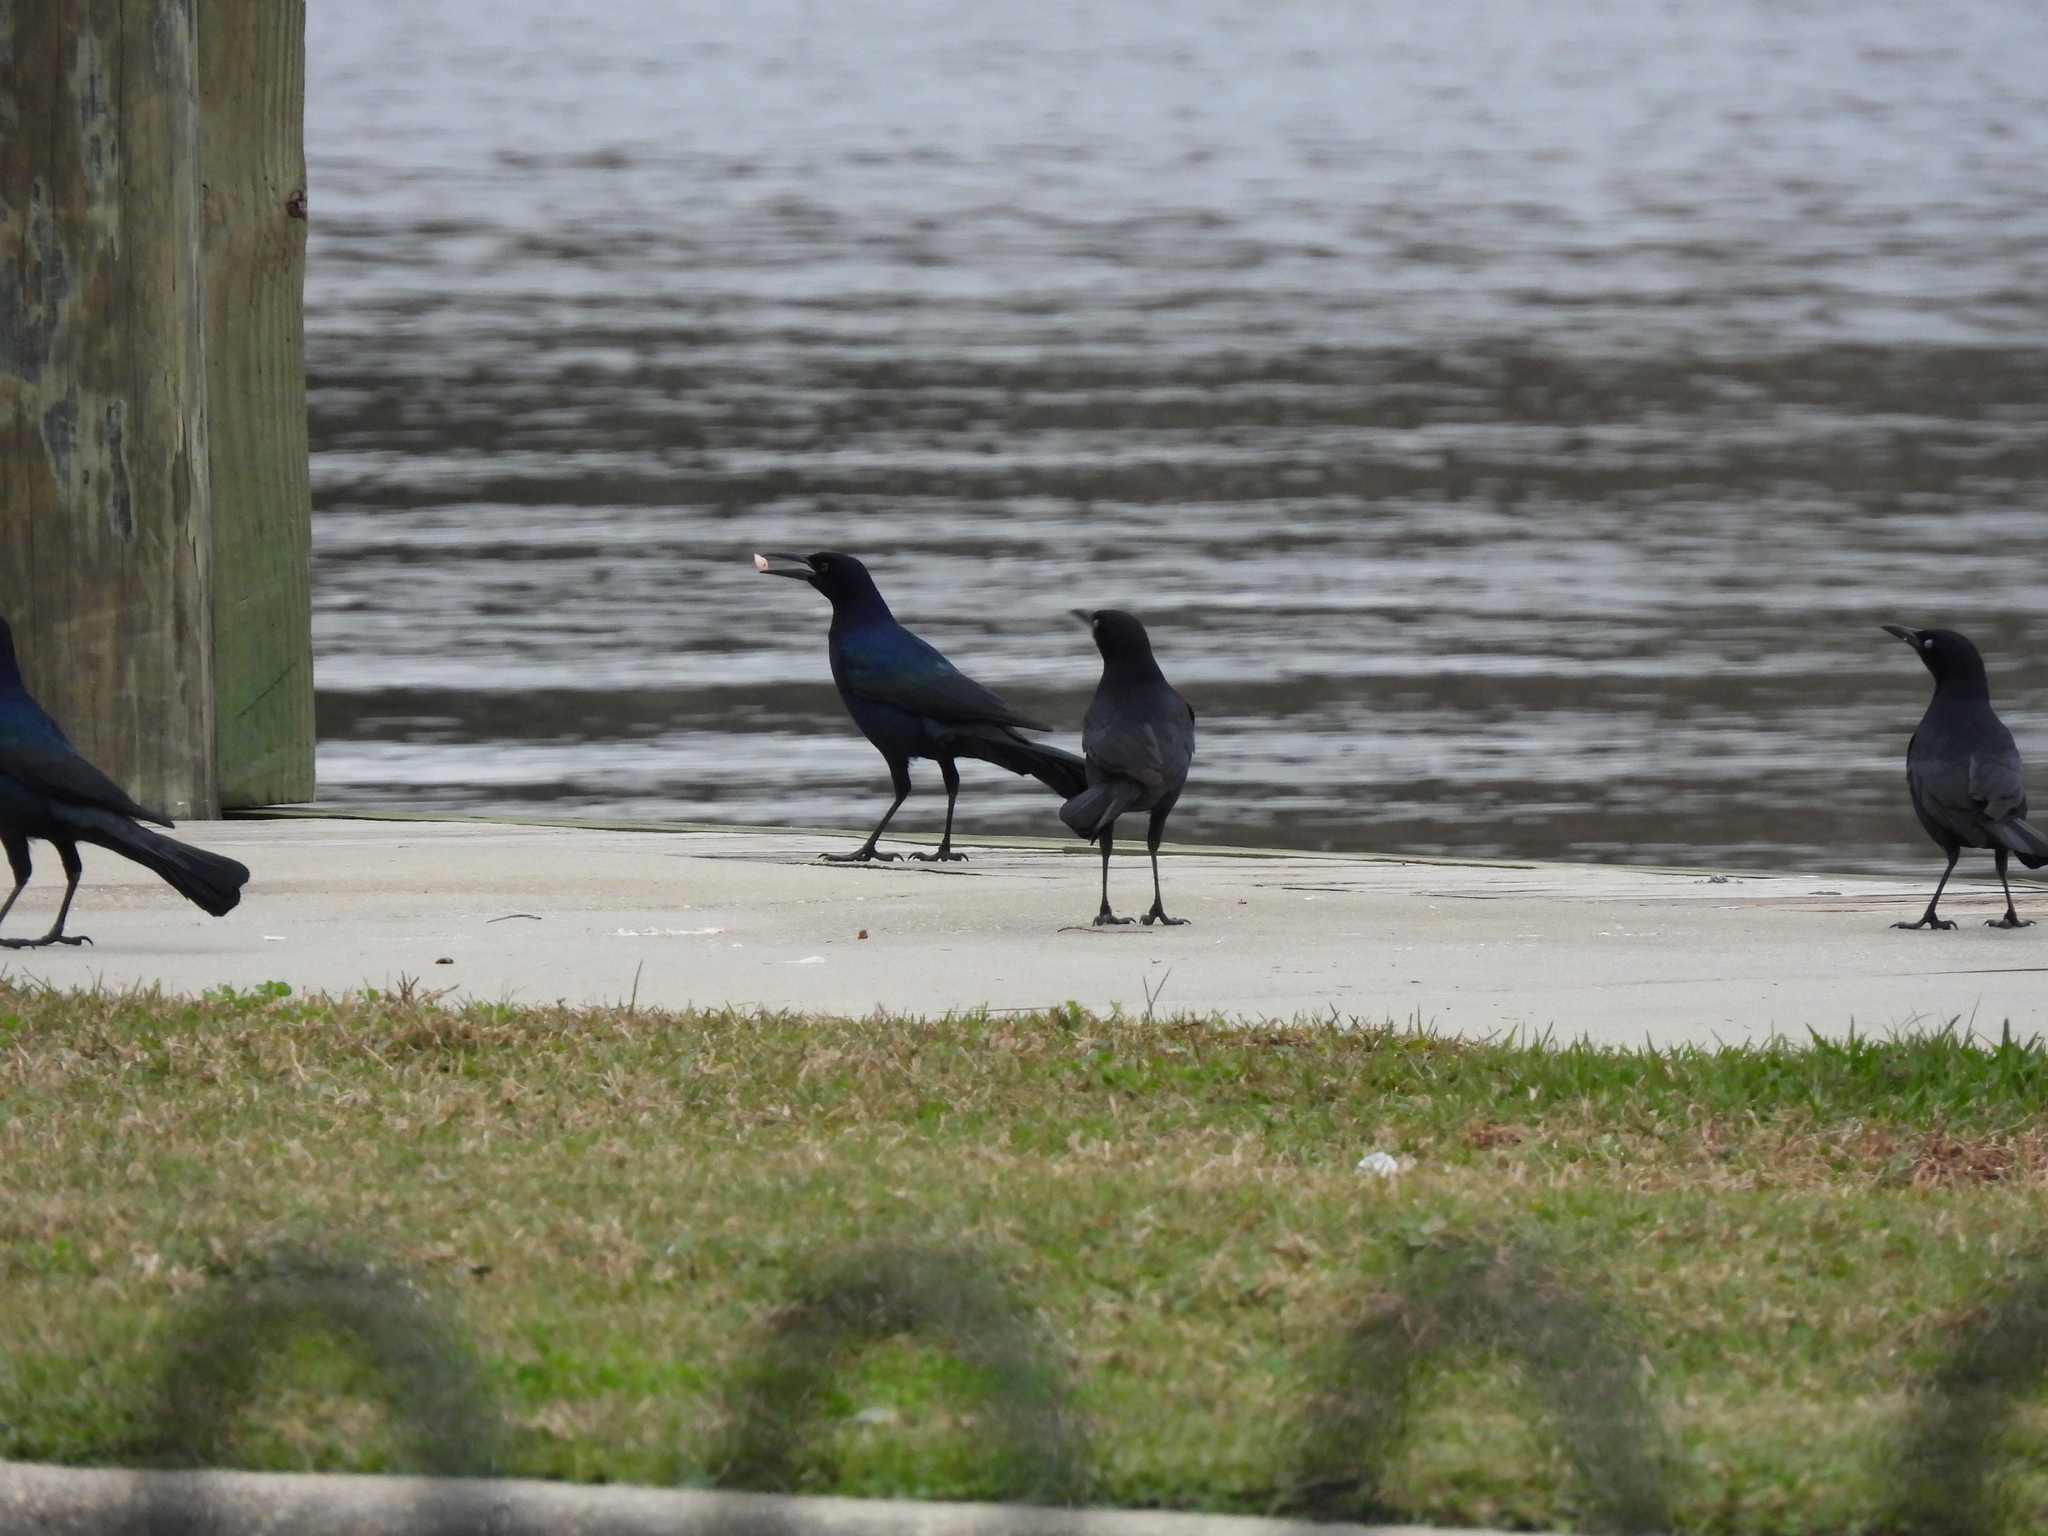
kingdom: Animalia
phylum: Chordata
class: Aves
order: Passeriformes
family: Icteridae
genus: Quiscalus
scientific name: Quiscalus major
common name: Boat-tailed grackle
